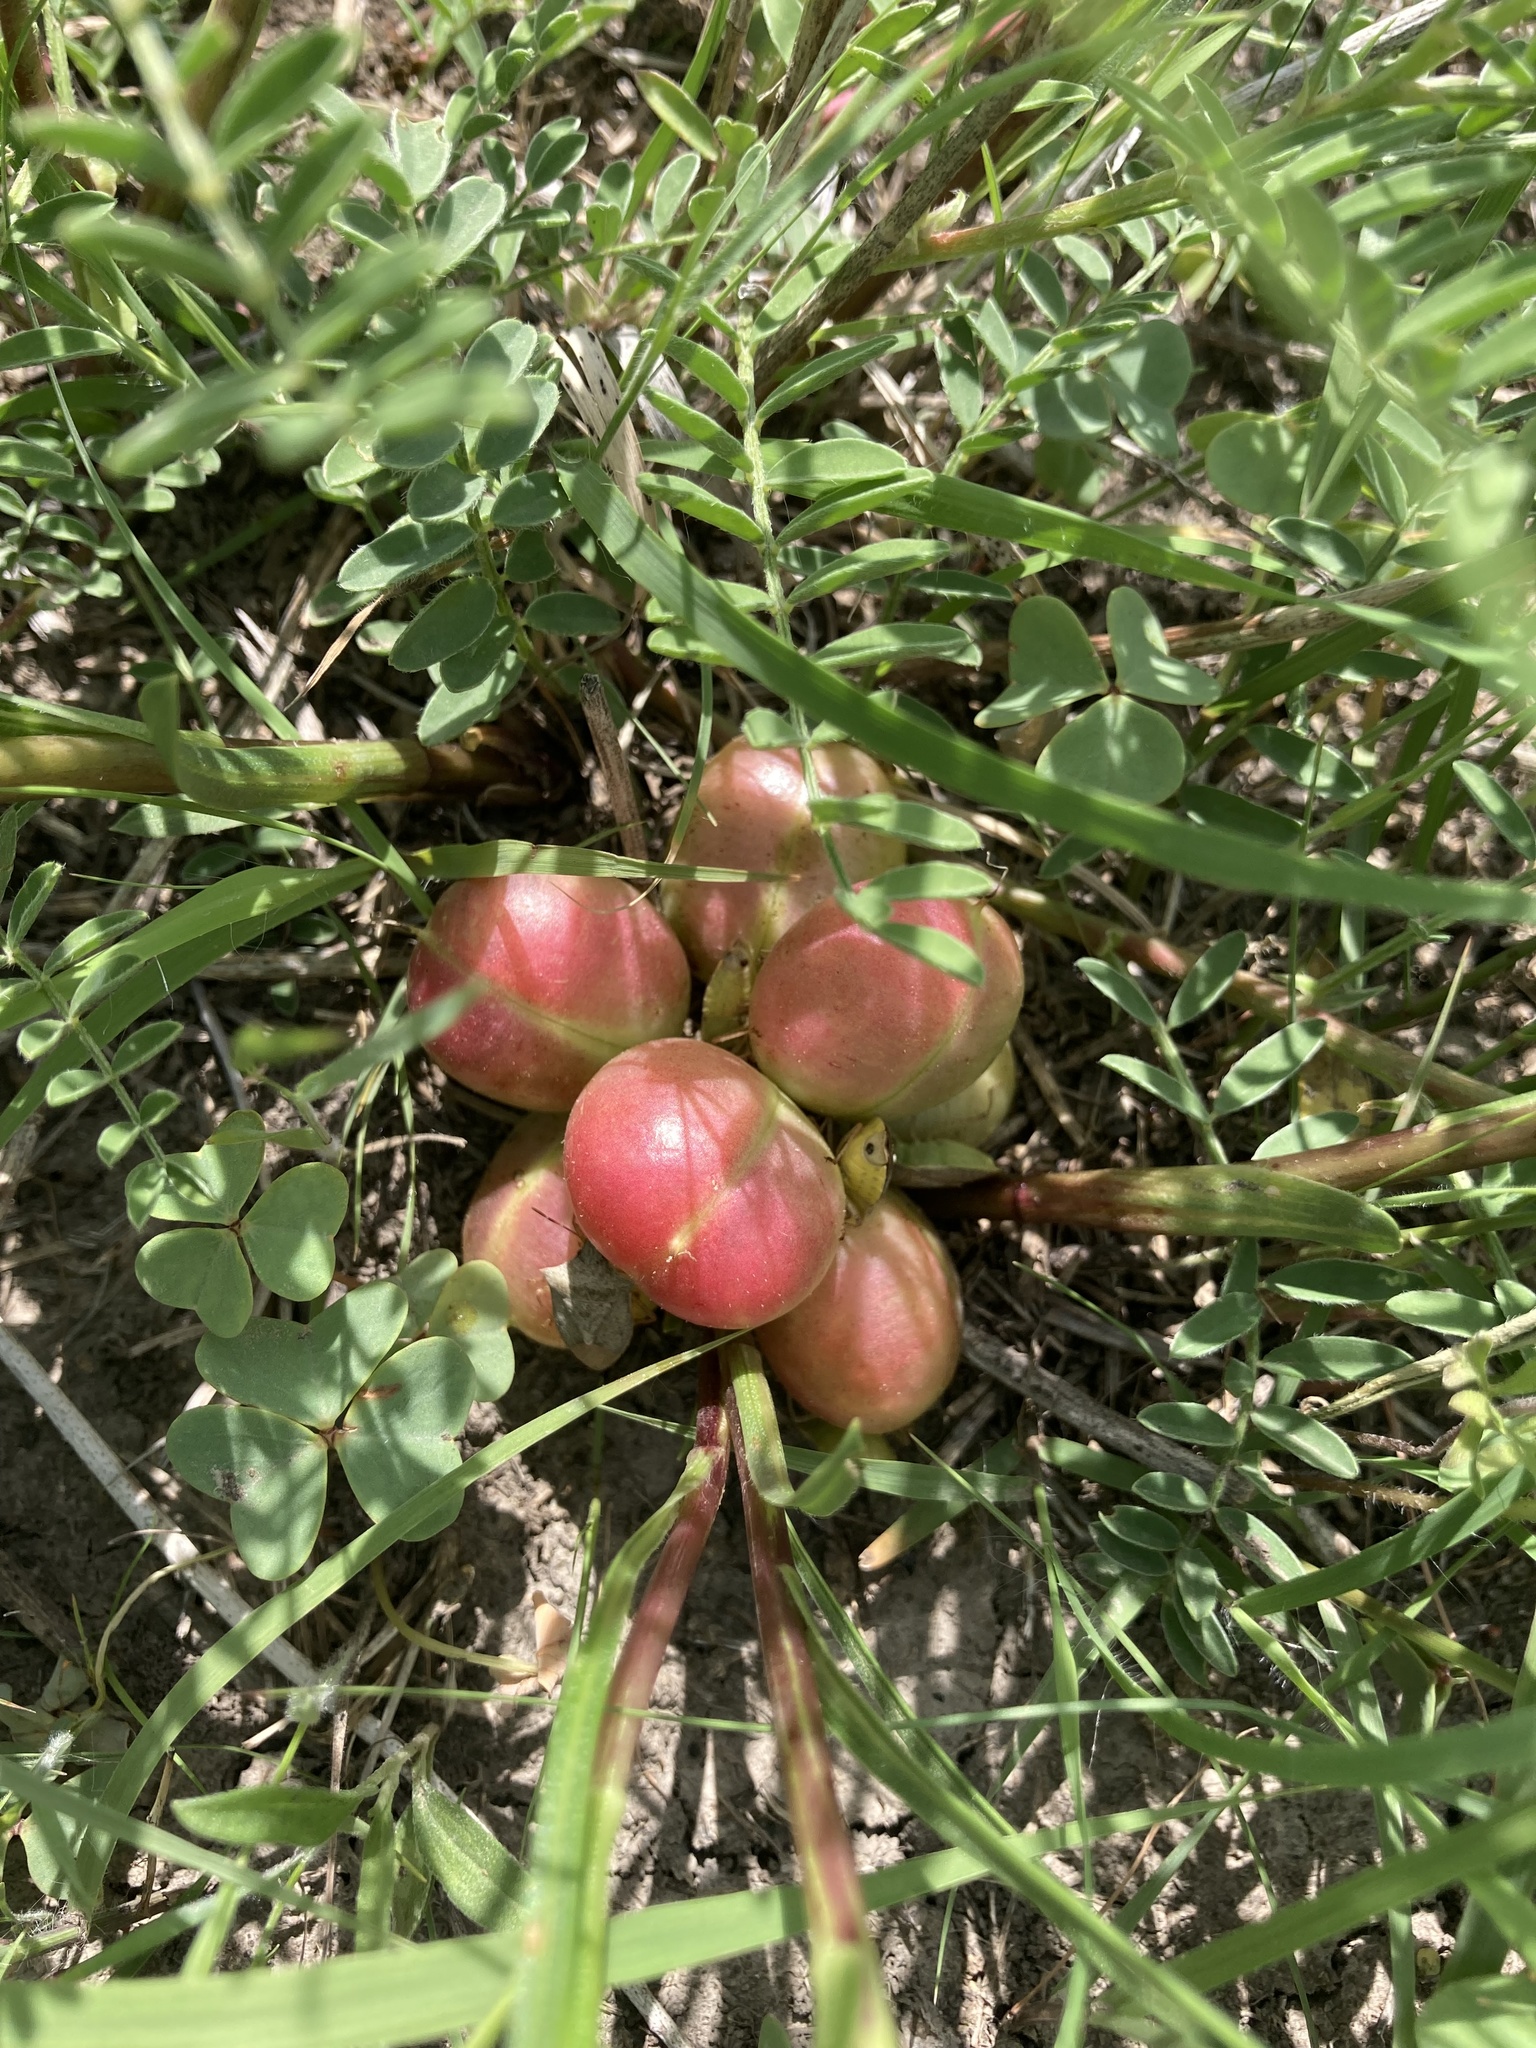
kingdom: Plantae
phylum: Tracheophyta
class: Magnoliopsida
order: Fabales
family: Fabaceae
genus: Astragalus
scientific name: Astragalus crassicarpus
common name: Ground-plum milk-vetch
